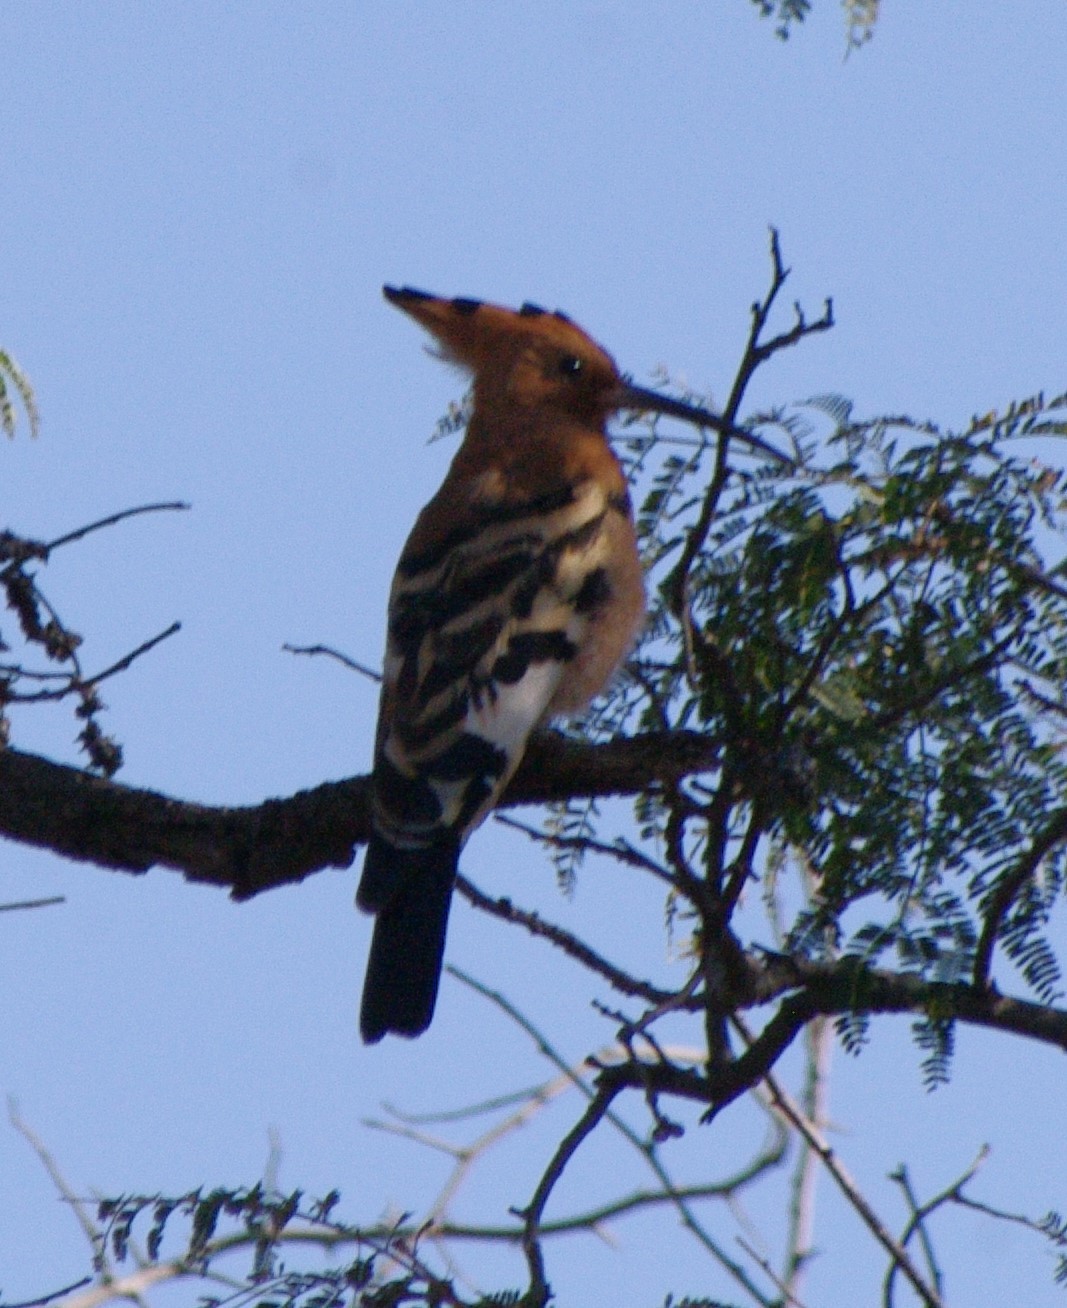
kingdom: Animalia
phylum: Chordata
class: Aves
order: Bucerotiformes
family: Upupidae
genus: Upupa
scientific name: Upupa africana
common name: African hoopoe
